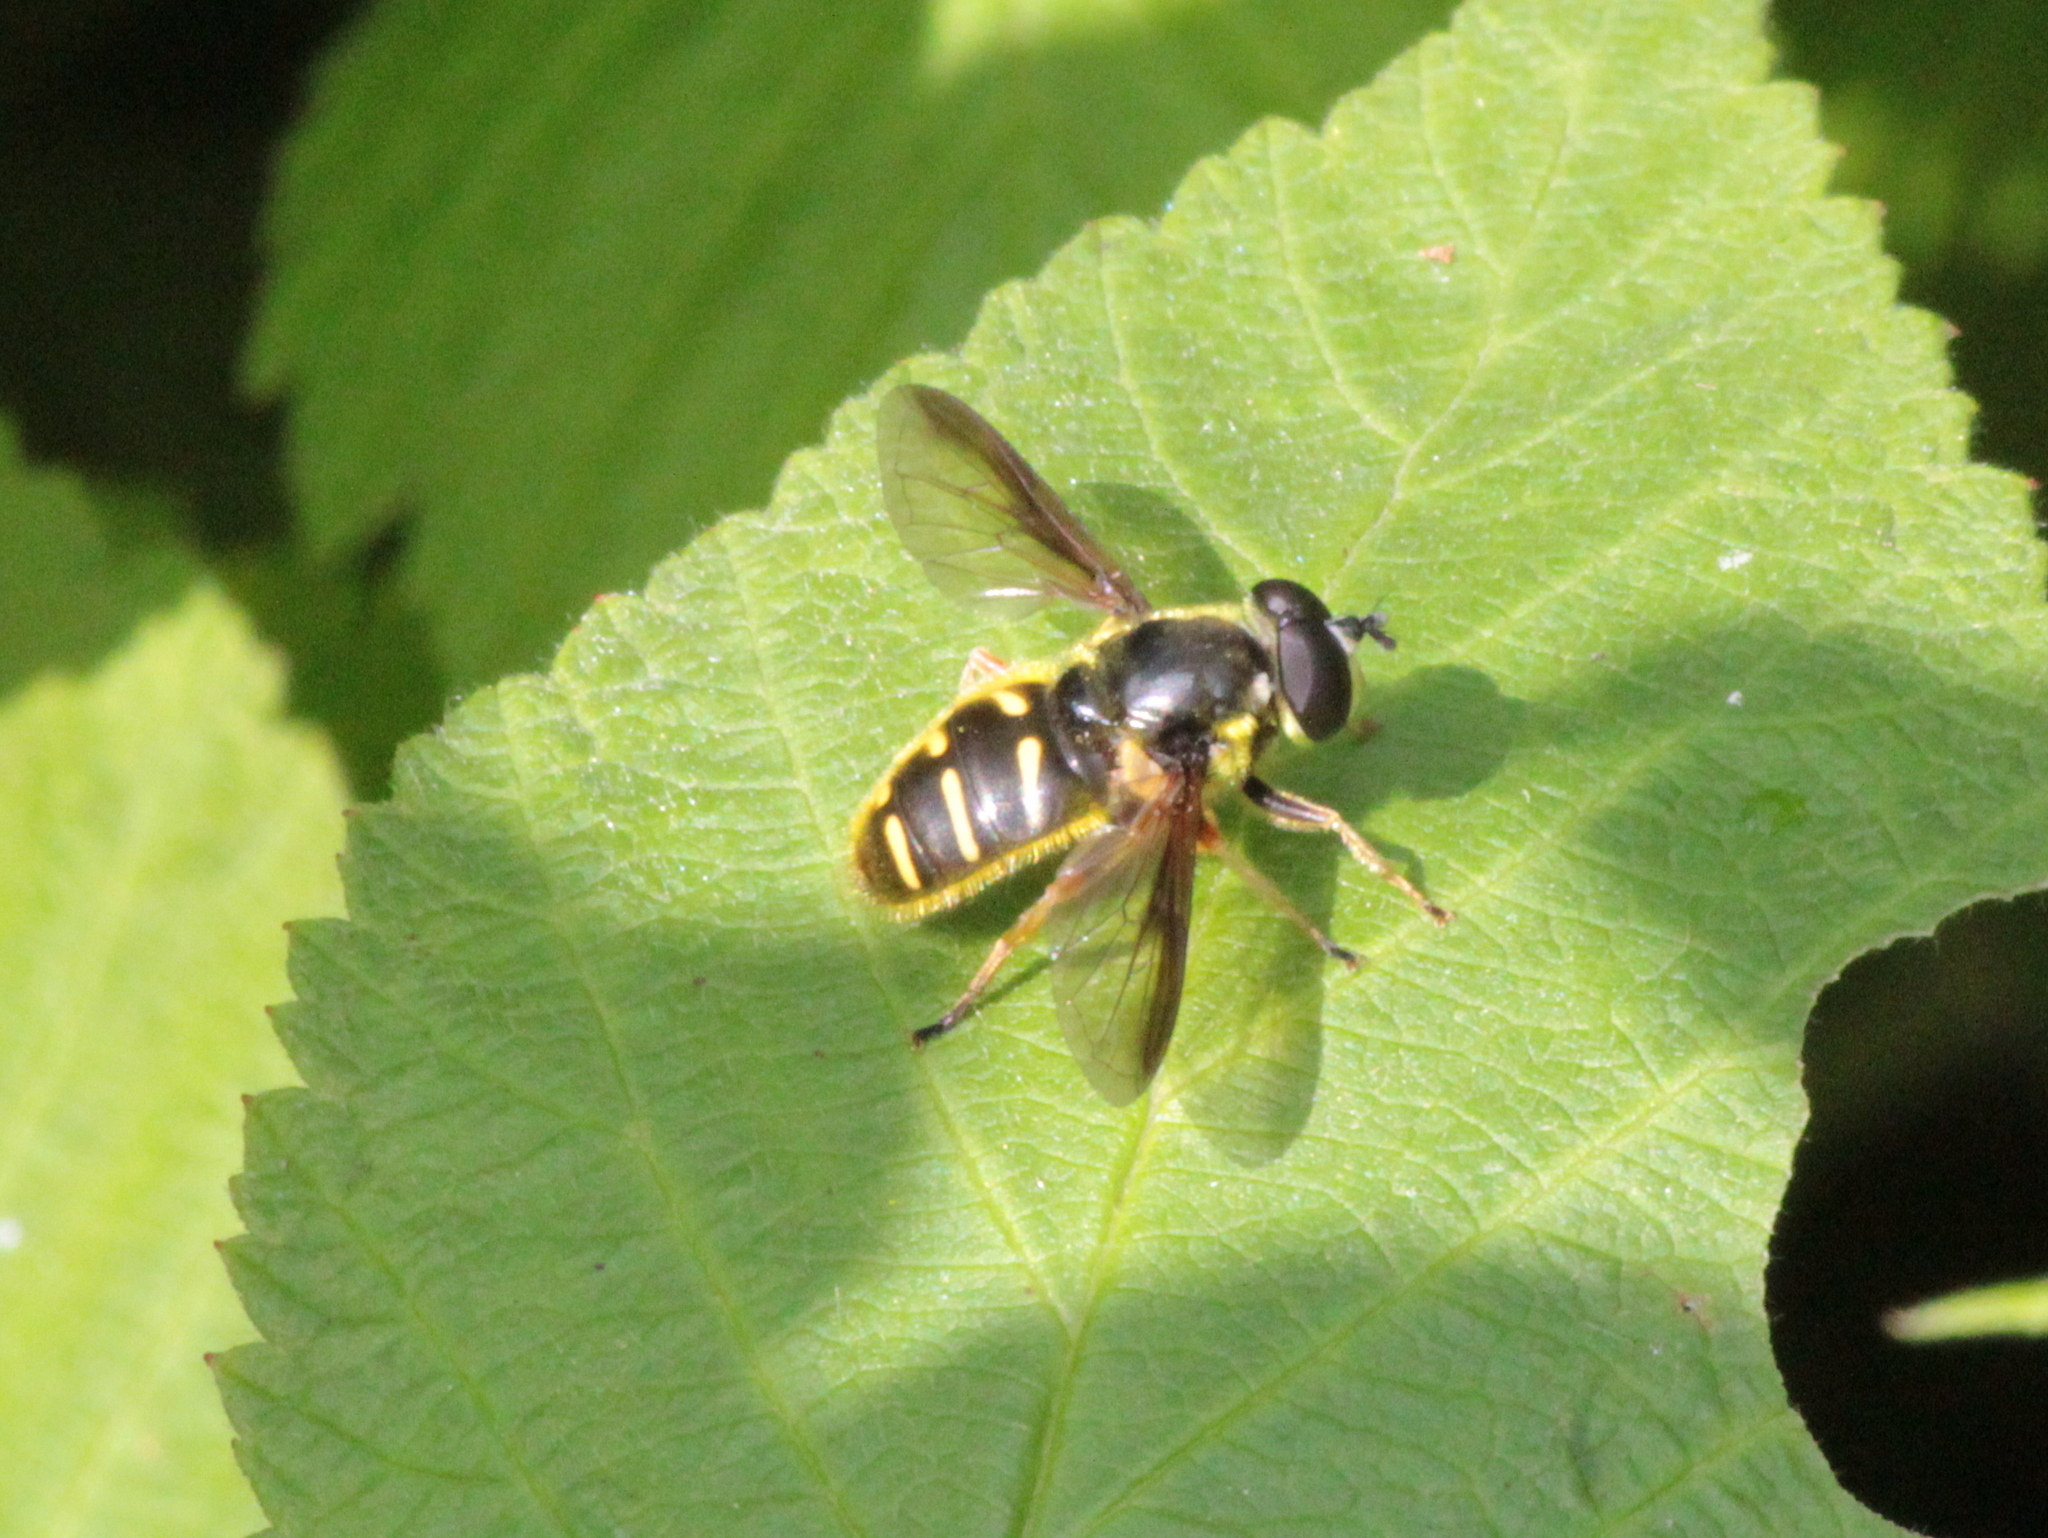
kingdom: Animalia
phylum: Arthropoda
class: Insecta
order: Diptera
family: Syrphidae
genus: Sericomyia
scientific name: Sericomyia chrysotoxoides
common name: Oblique-banded pond fly
